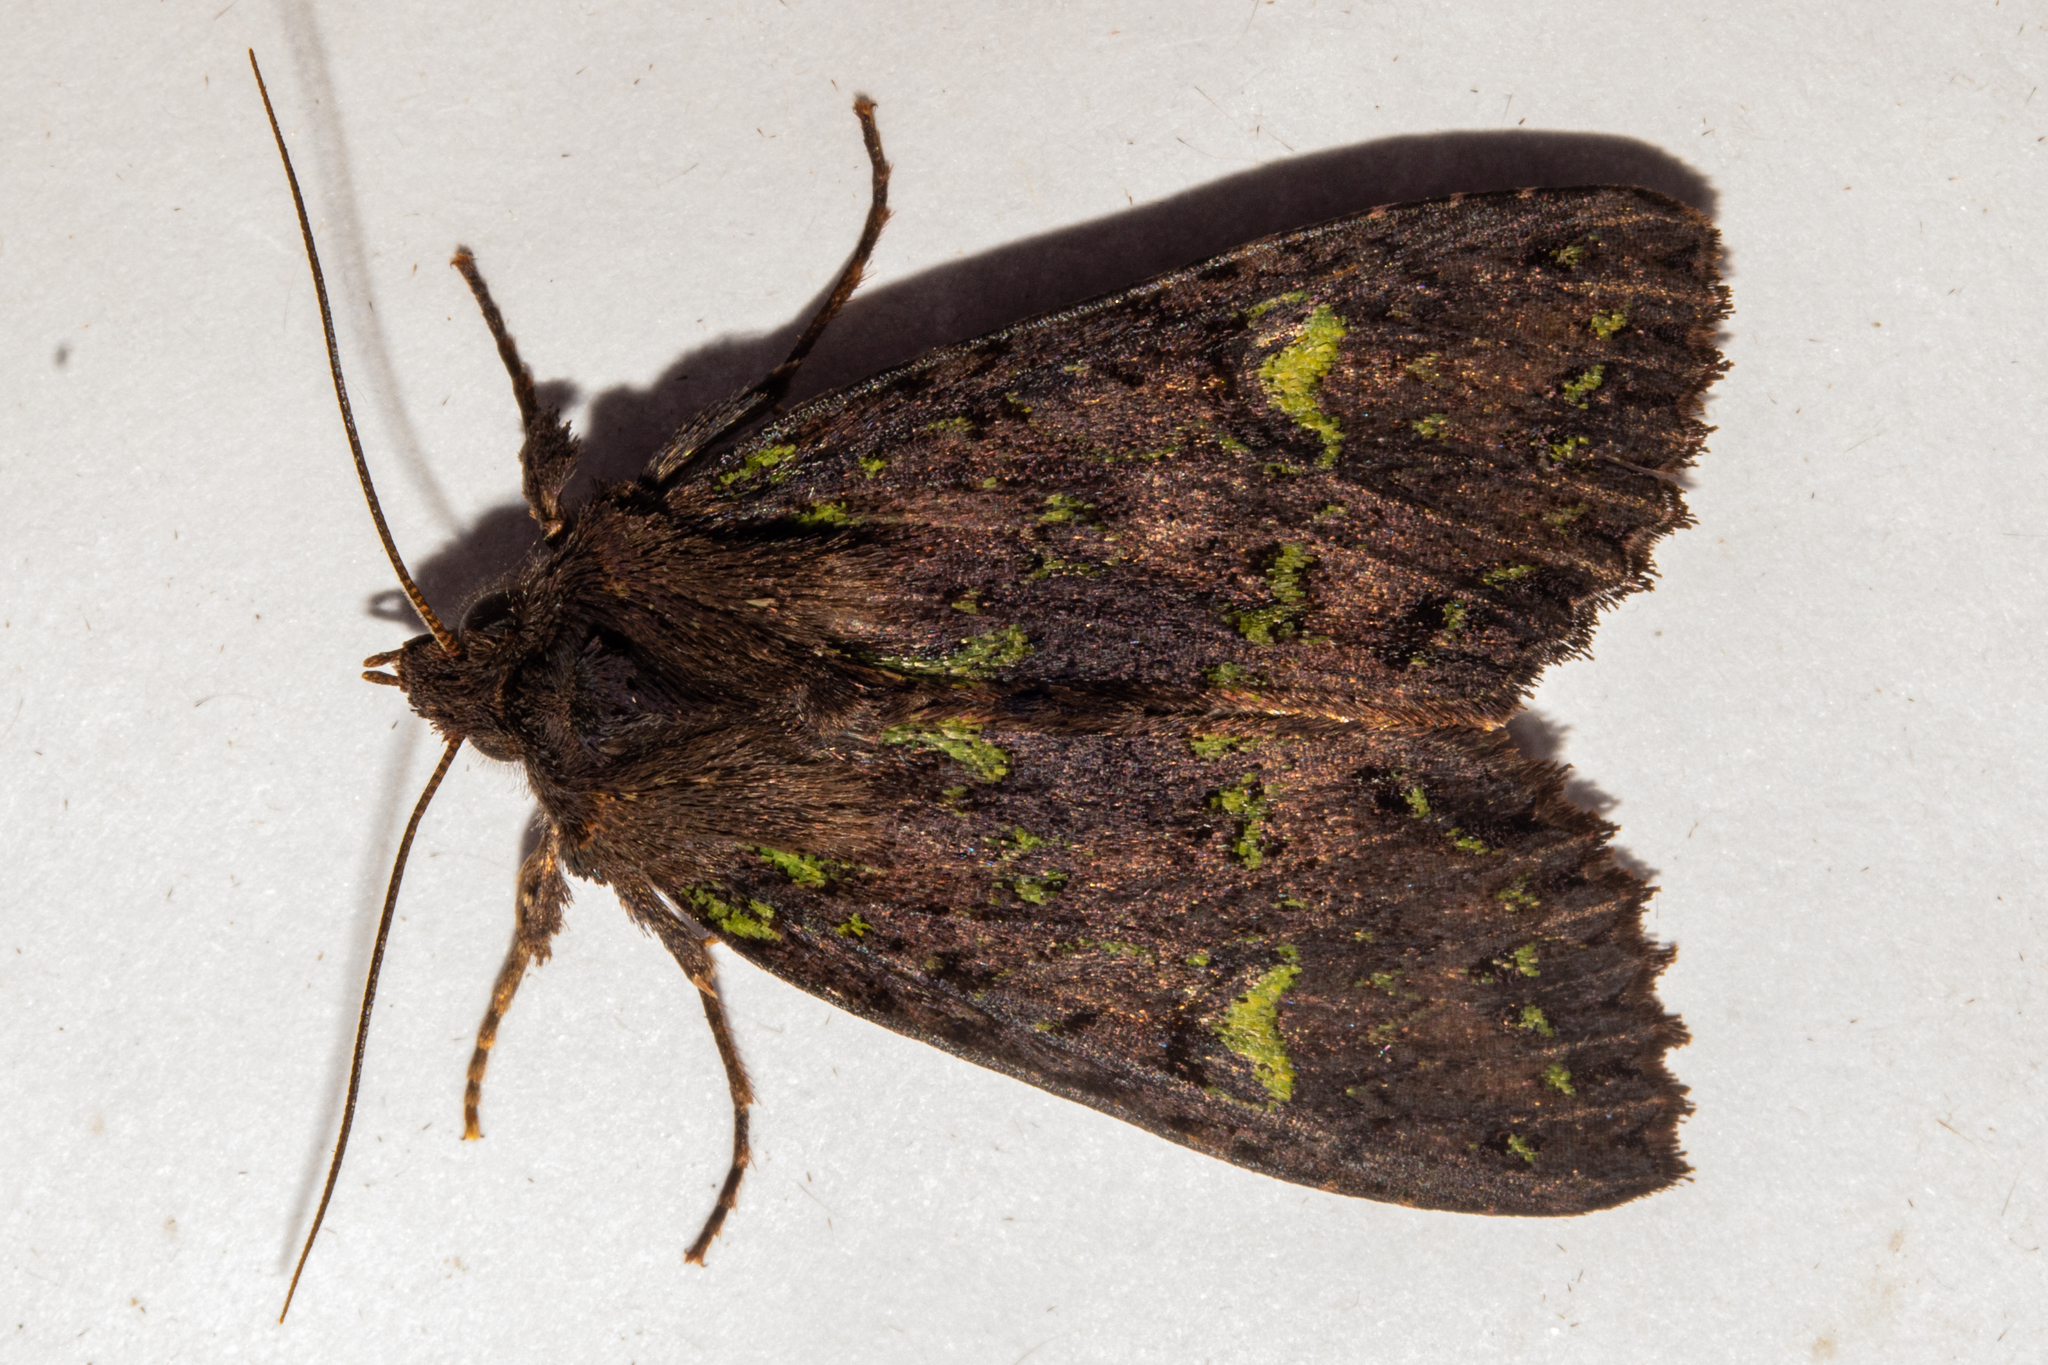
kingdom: Animalia
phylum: Arthropoda
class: Insecta
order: Lepidoptera
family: Noctuidae
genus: Meterana
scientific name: Meterana merope
